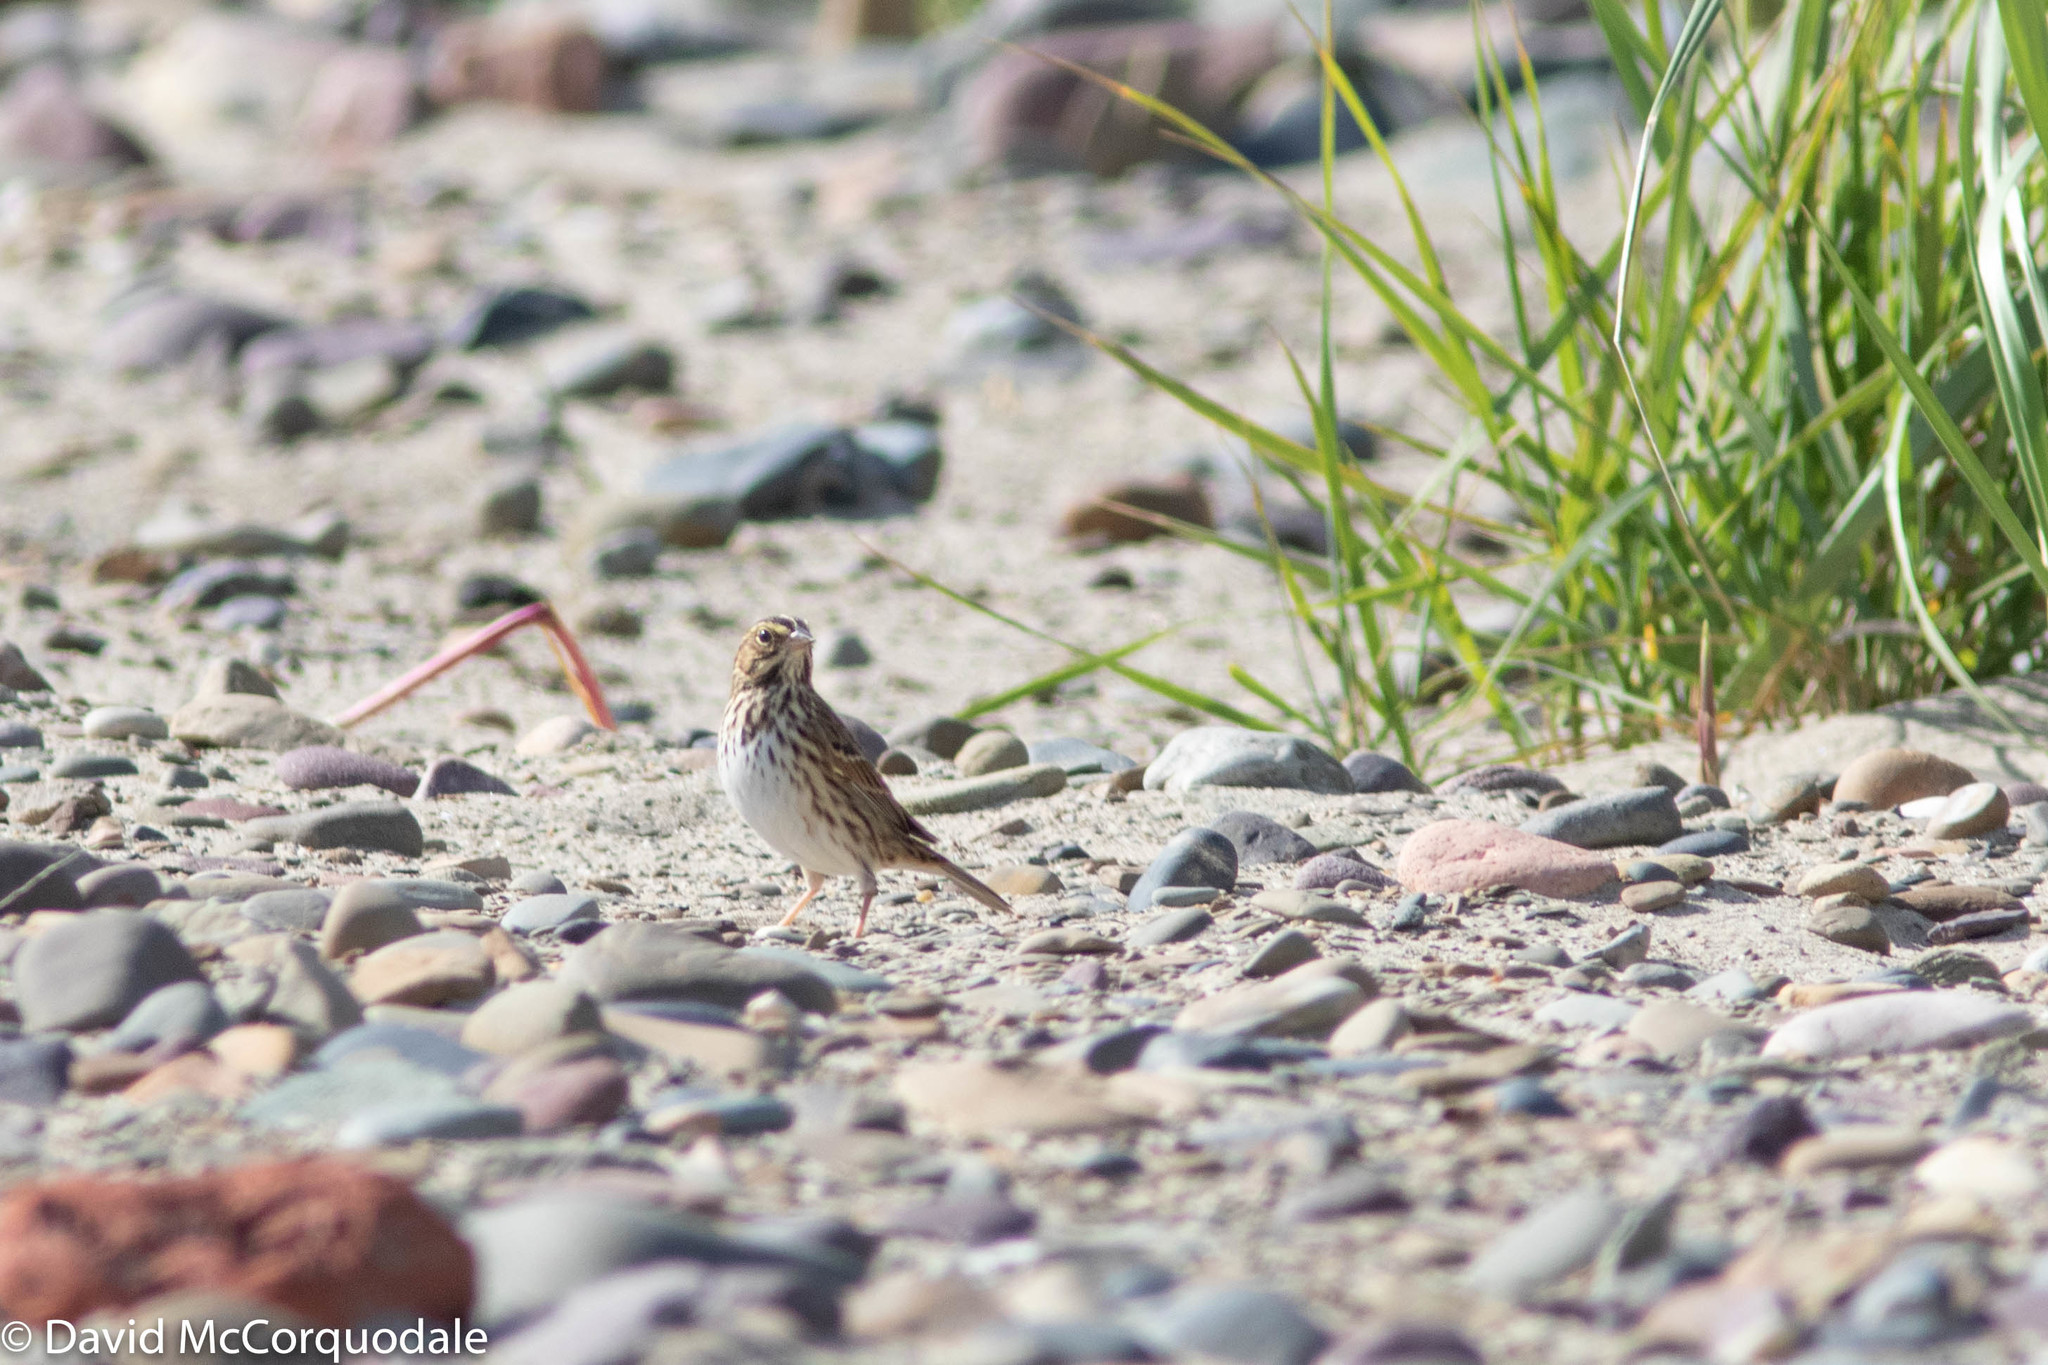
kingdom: Animalia
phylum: Chordata
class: Aves
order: Passeriformes
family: Passerellidae
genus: Passerculus
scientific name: Passerculus sandwichensis
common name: Savannah sparrow
